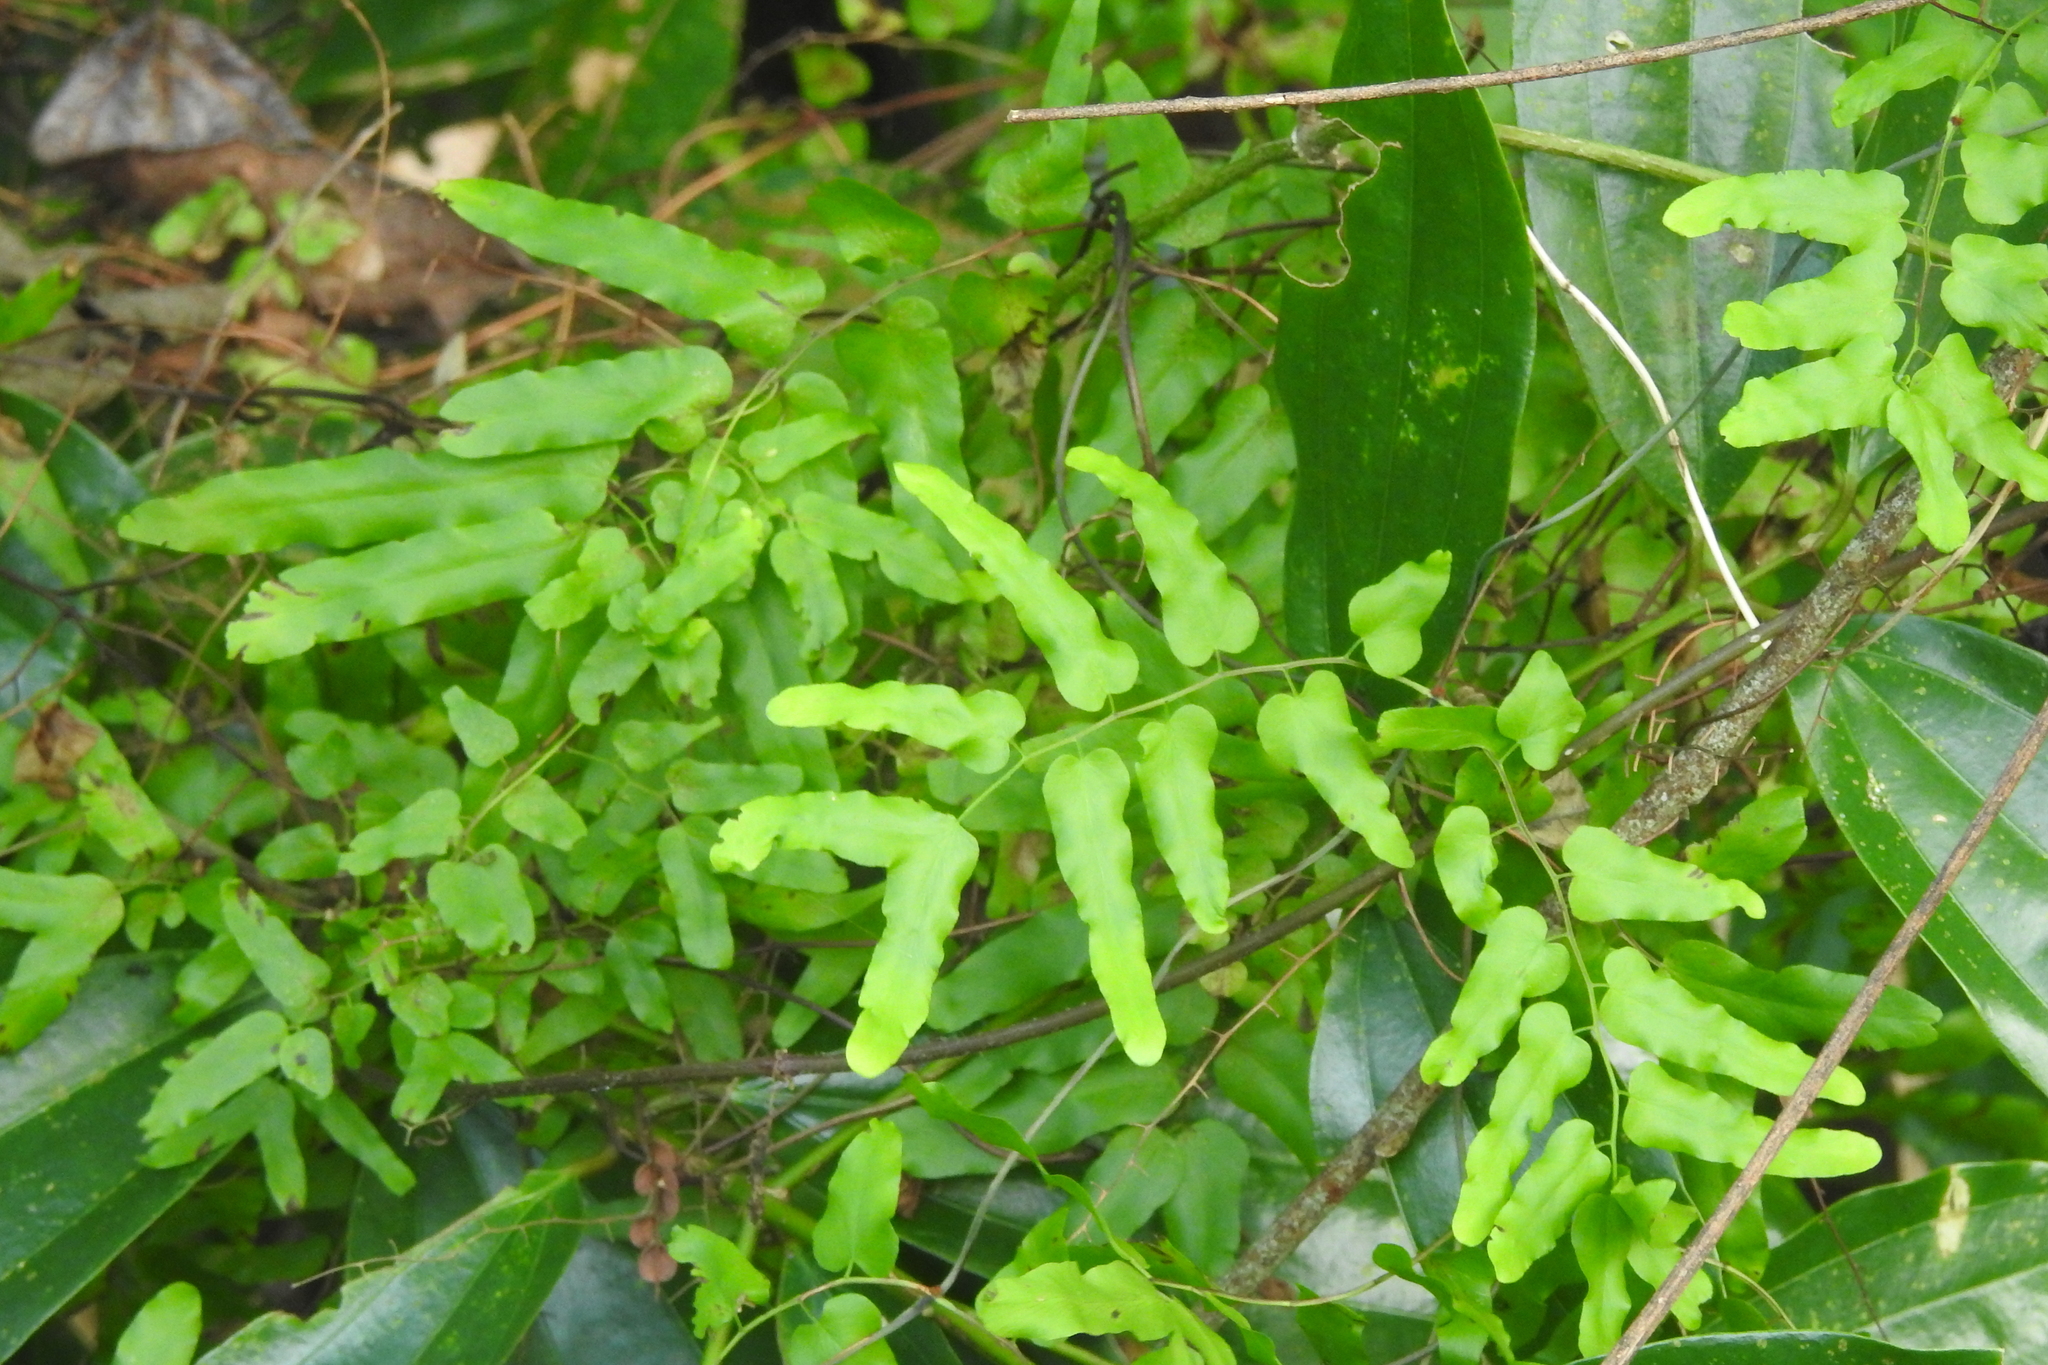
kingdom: Plantae
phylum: Tracheophyta
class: Polypodiopsida
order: Schizaeales
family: Lygodiaceae
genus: Lygodium
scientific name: Lygodium microphyllum
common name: Small-leaf climbing fern
